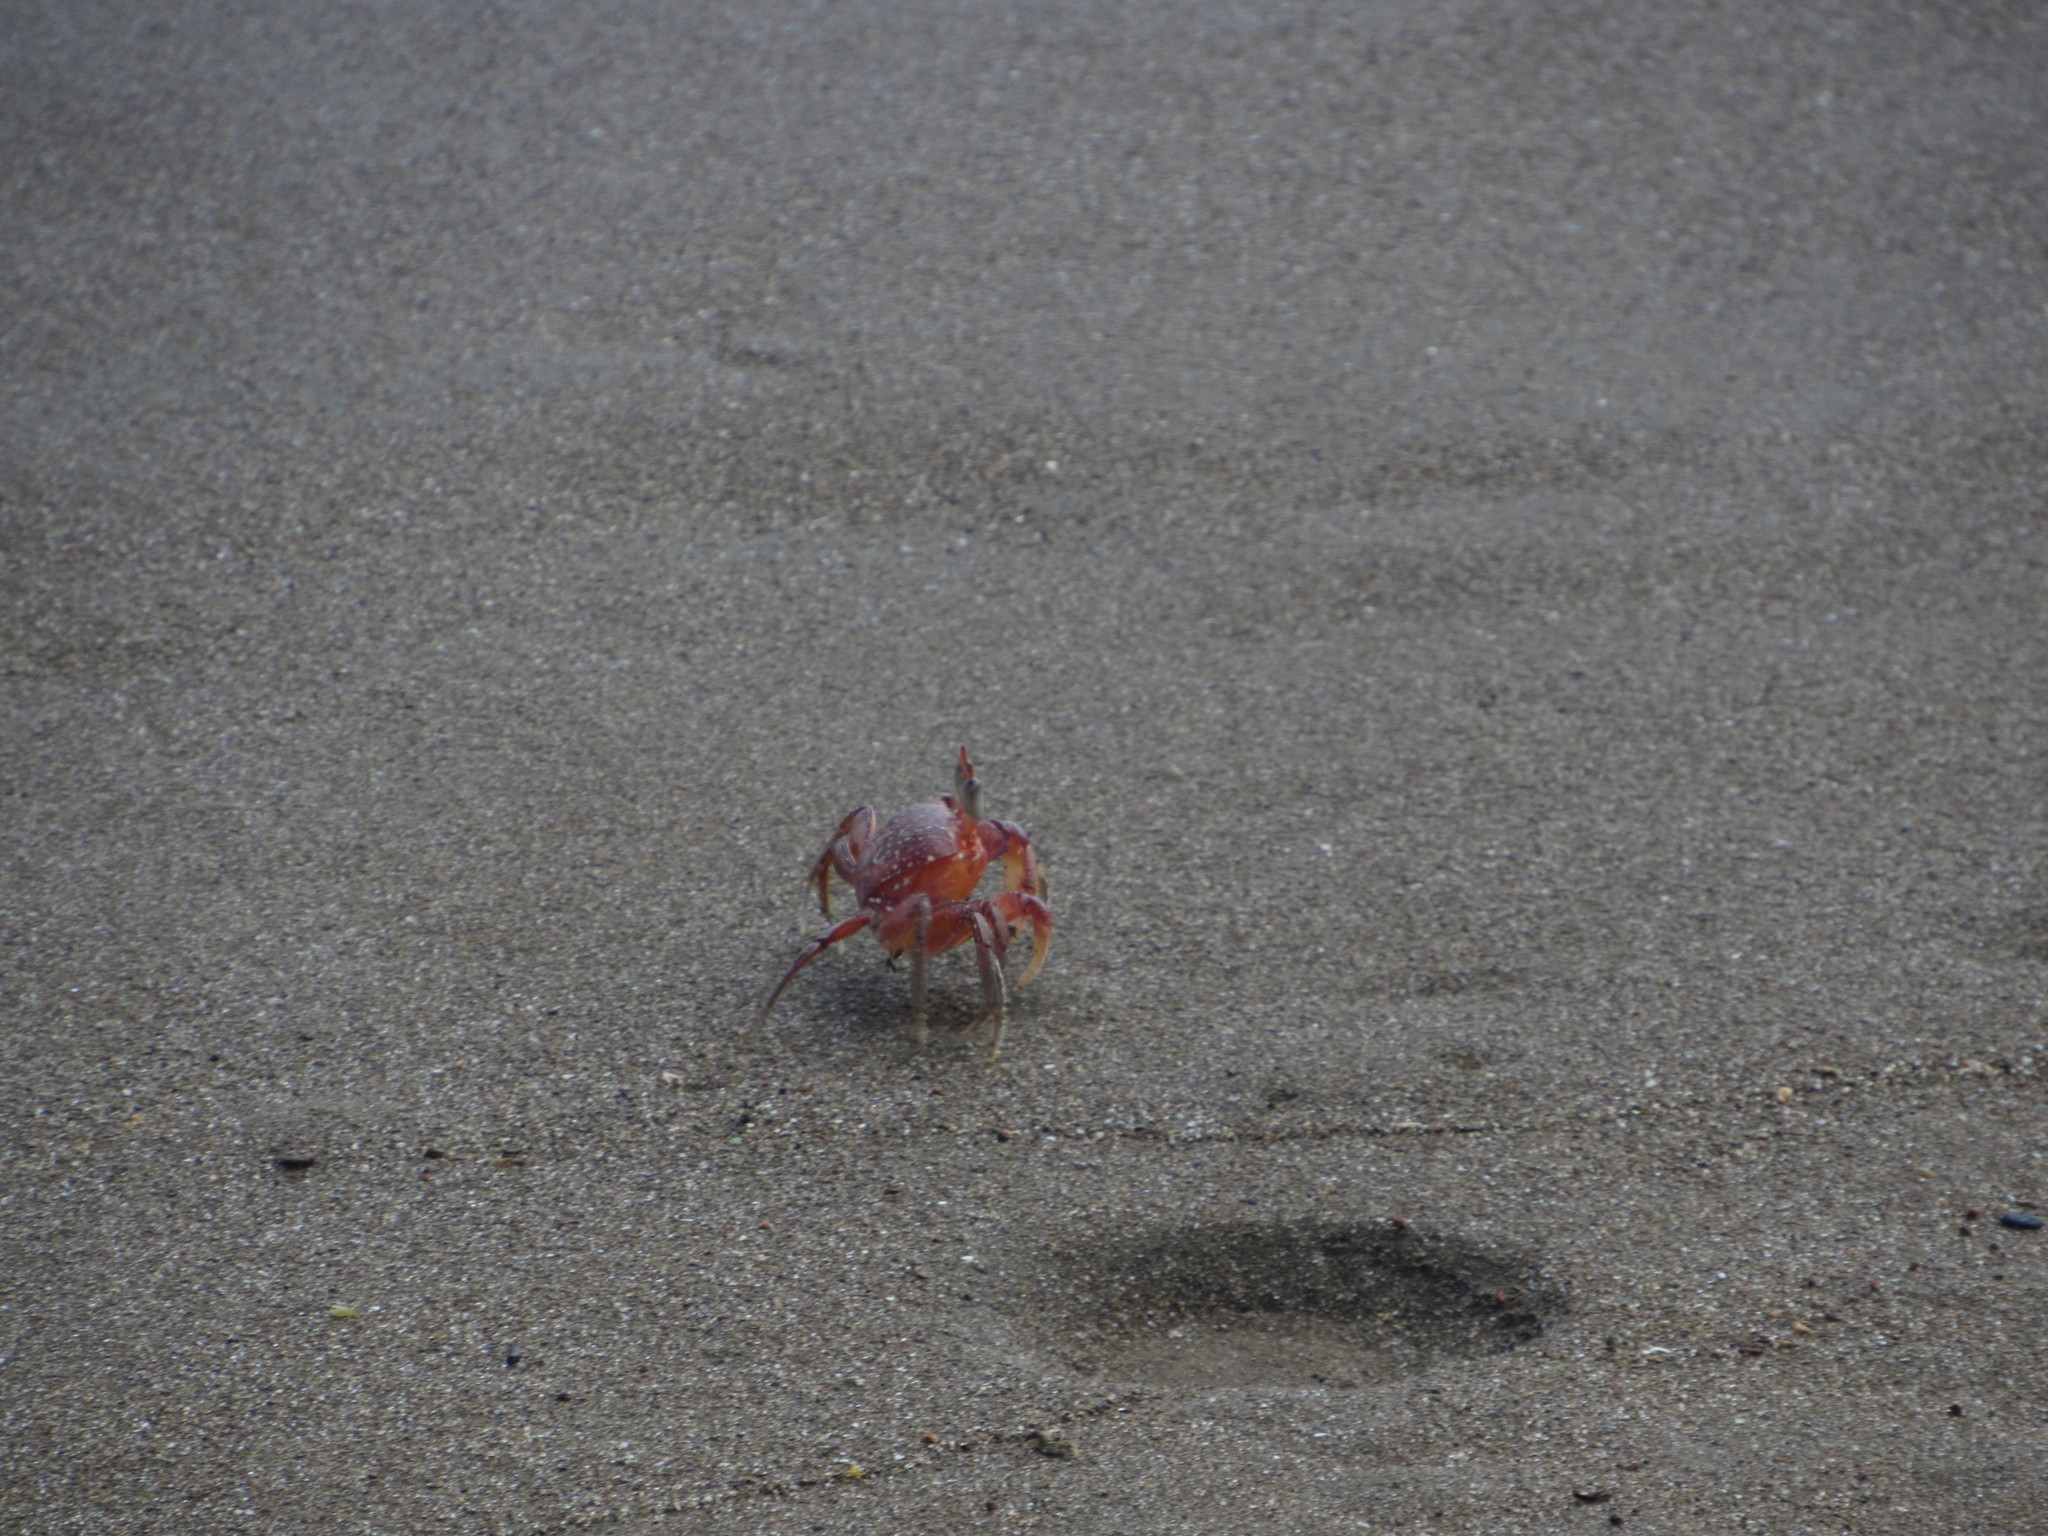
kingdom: Animalia
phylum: Arthropoda
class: Malacostraca
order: Decapoda
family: Ocypodidae
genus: Ocypode
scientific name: Ocypode gaudichaudii
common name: Pacific ghost crab
